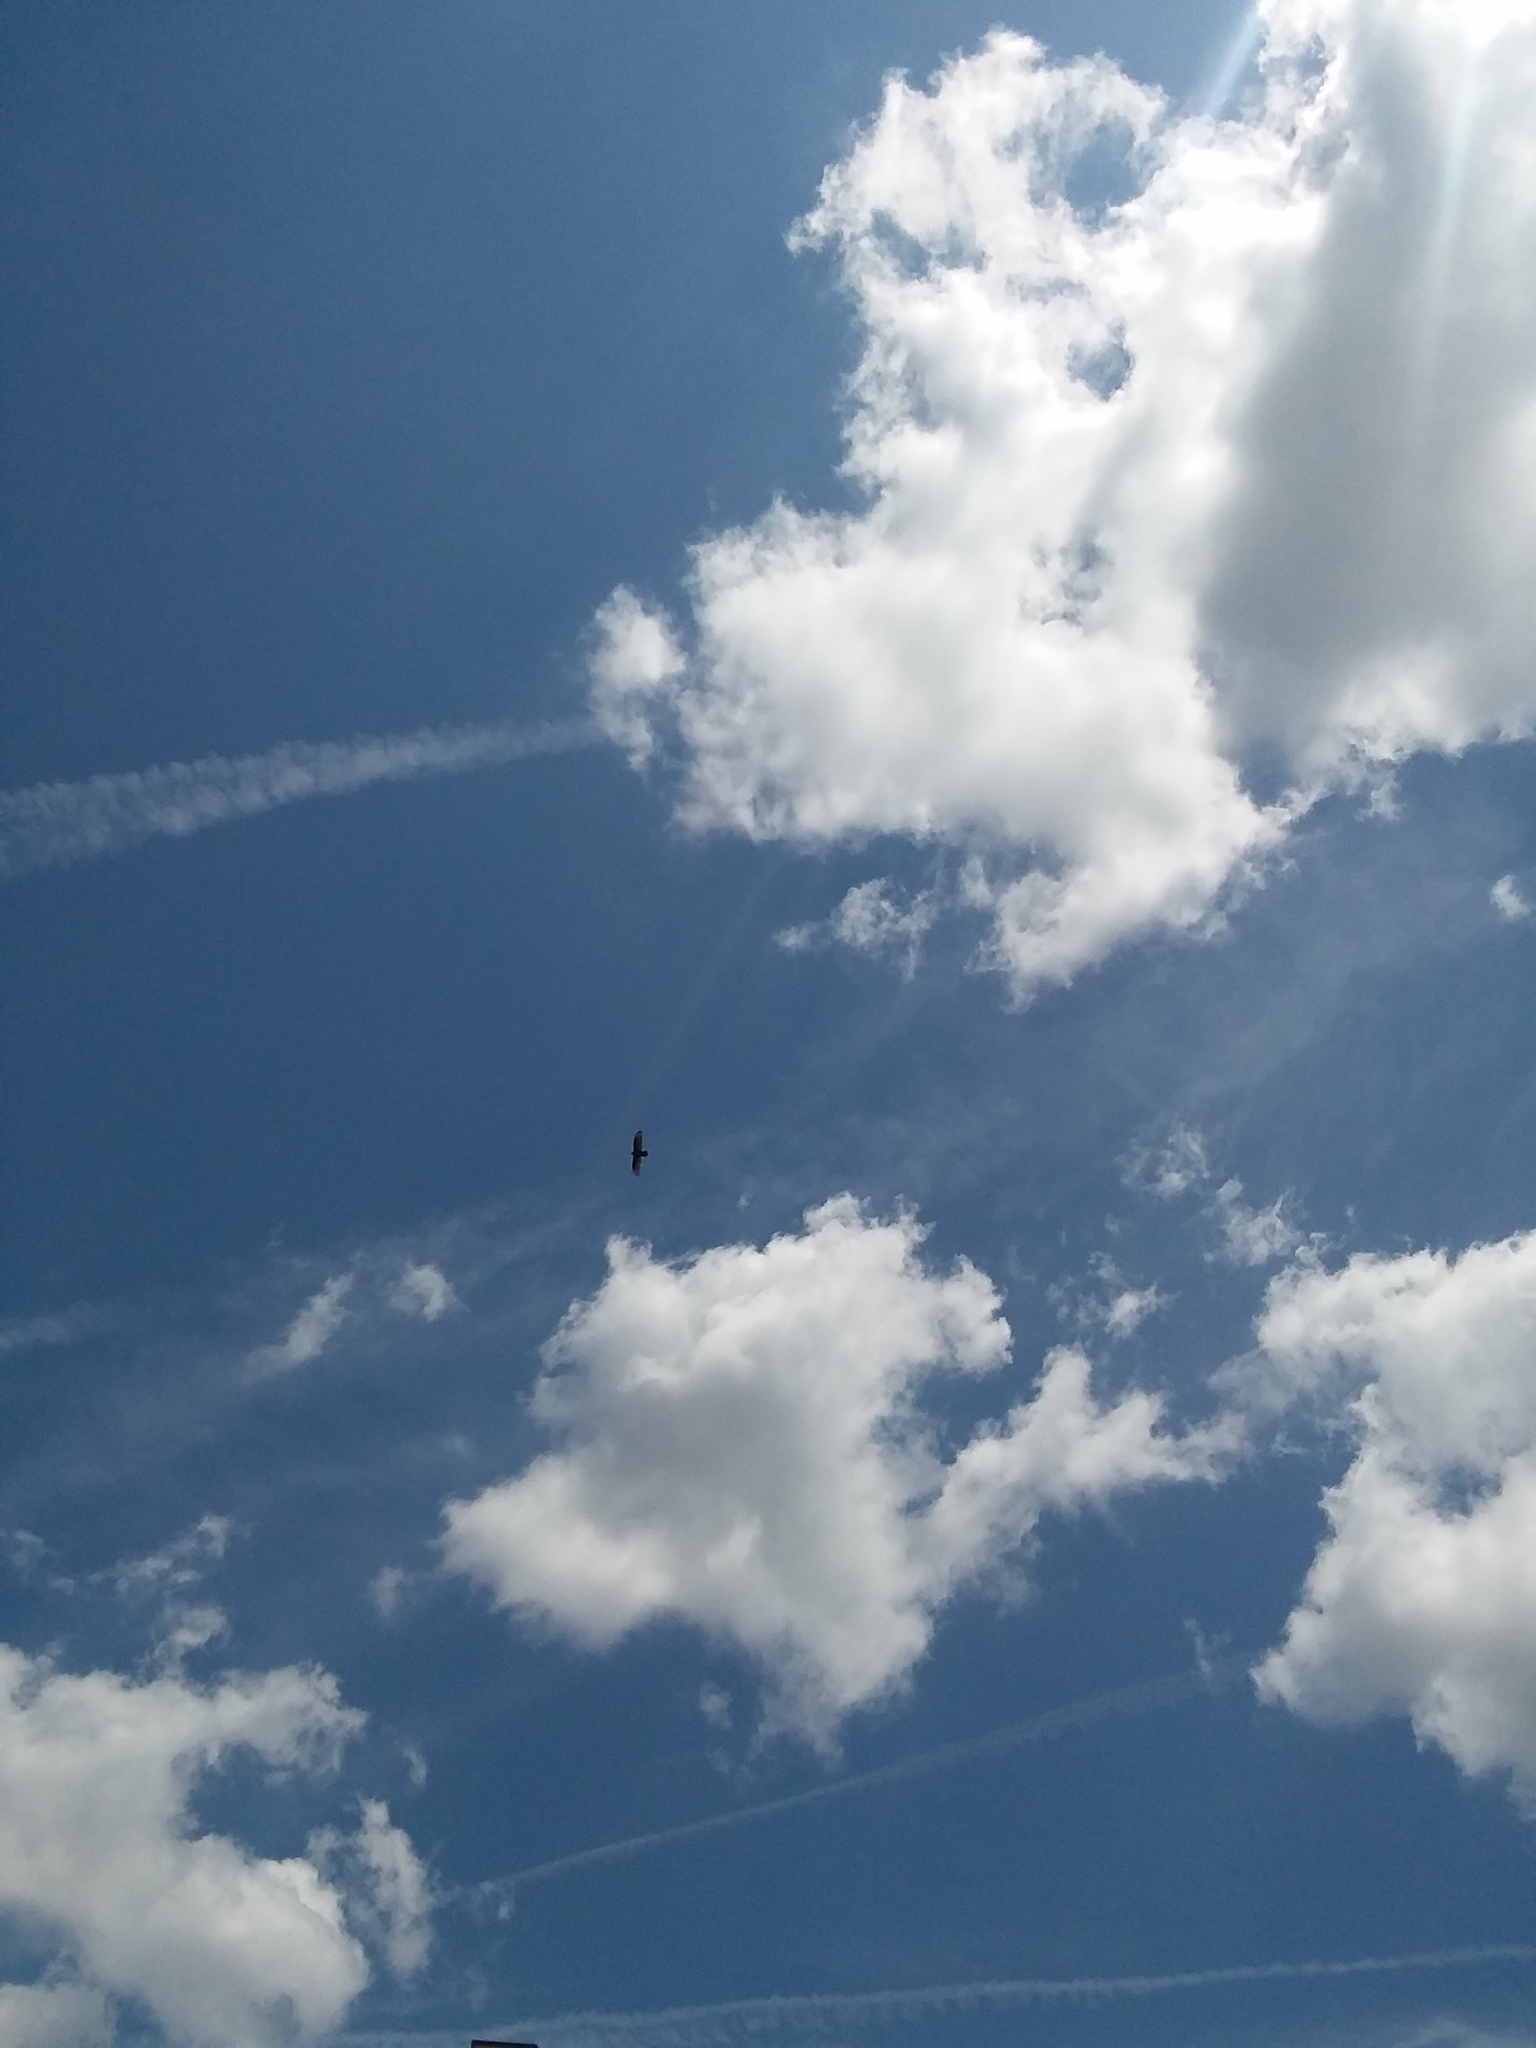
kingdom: Animalia
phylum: Chordata
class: Aves
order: Accipitriformes
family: Cathartidae
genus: Cathartes
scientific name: Cathartes aura
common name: Turkey vulture
